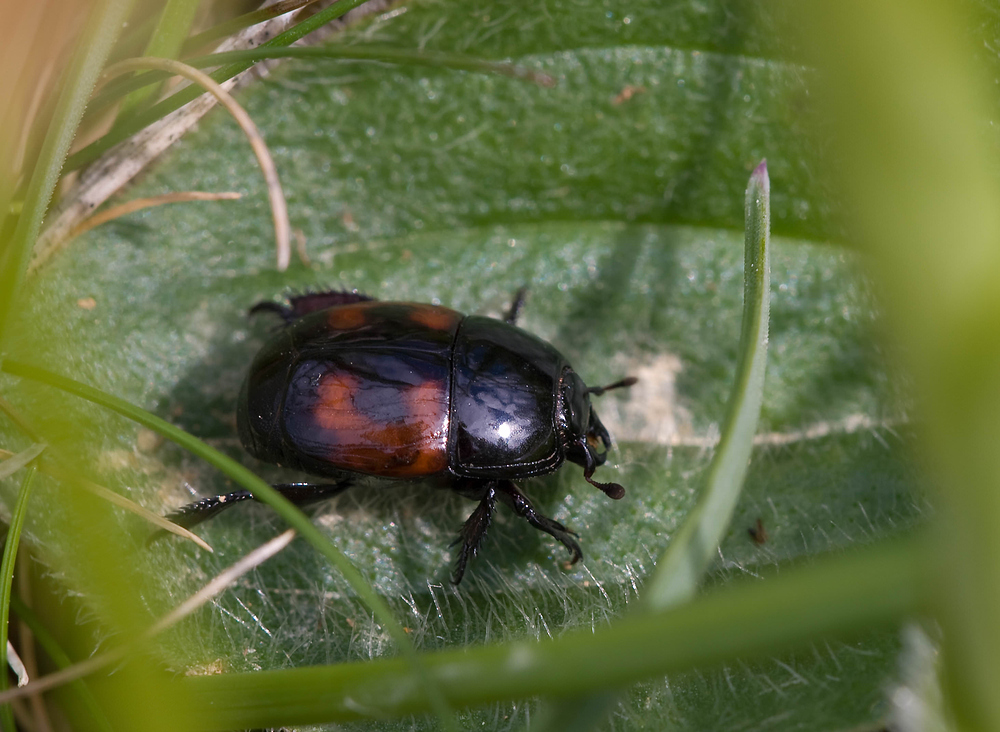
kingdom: Animalia
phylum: Arthropoda
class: Insecta
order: Coleoptera
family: Histeridae
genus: Hister
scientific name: Hister quadrimaculatus
